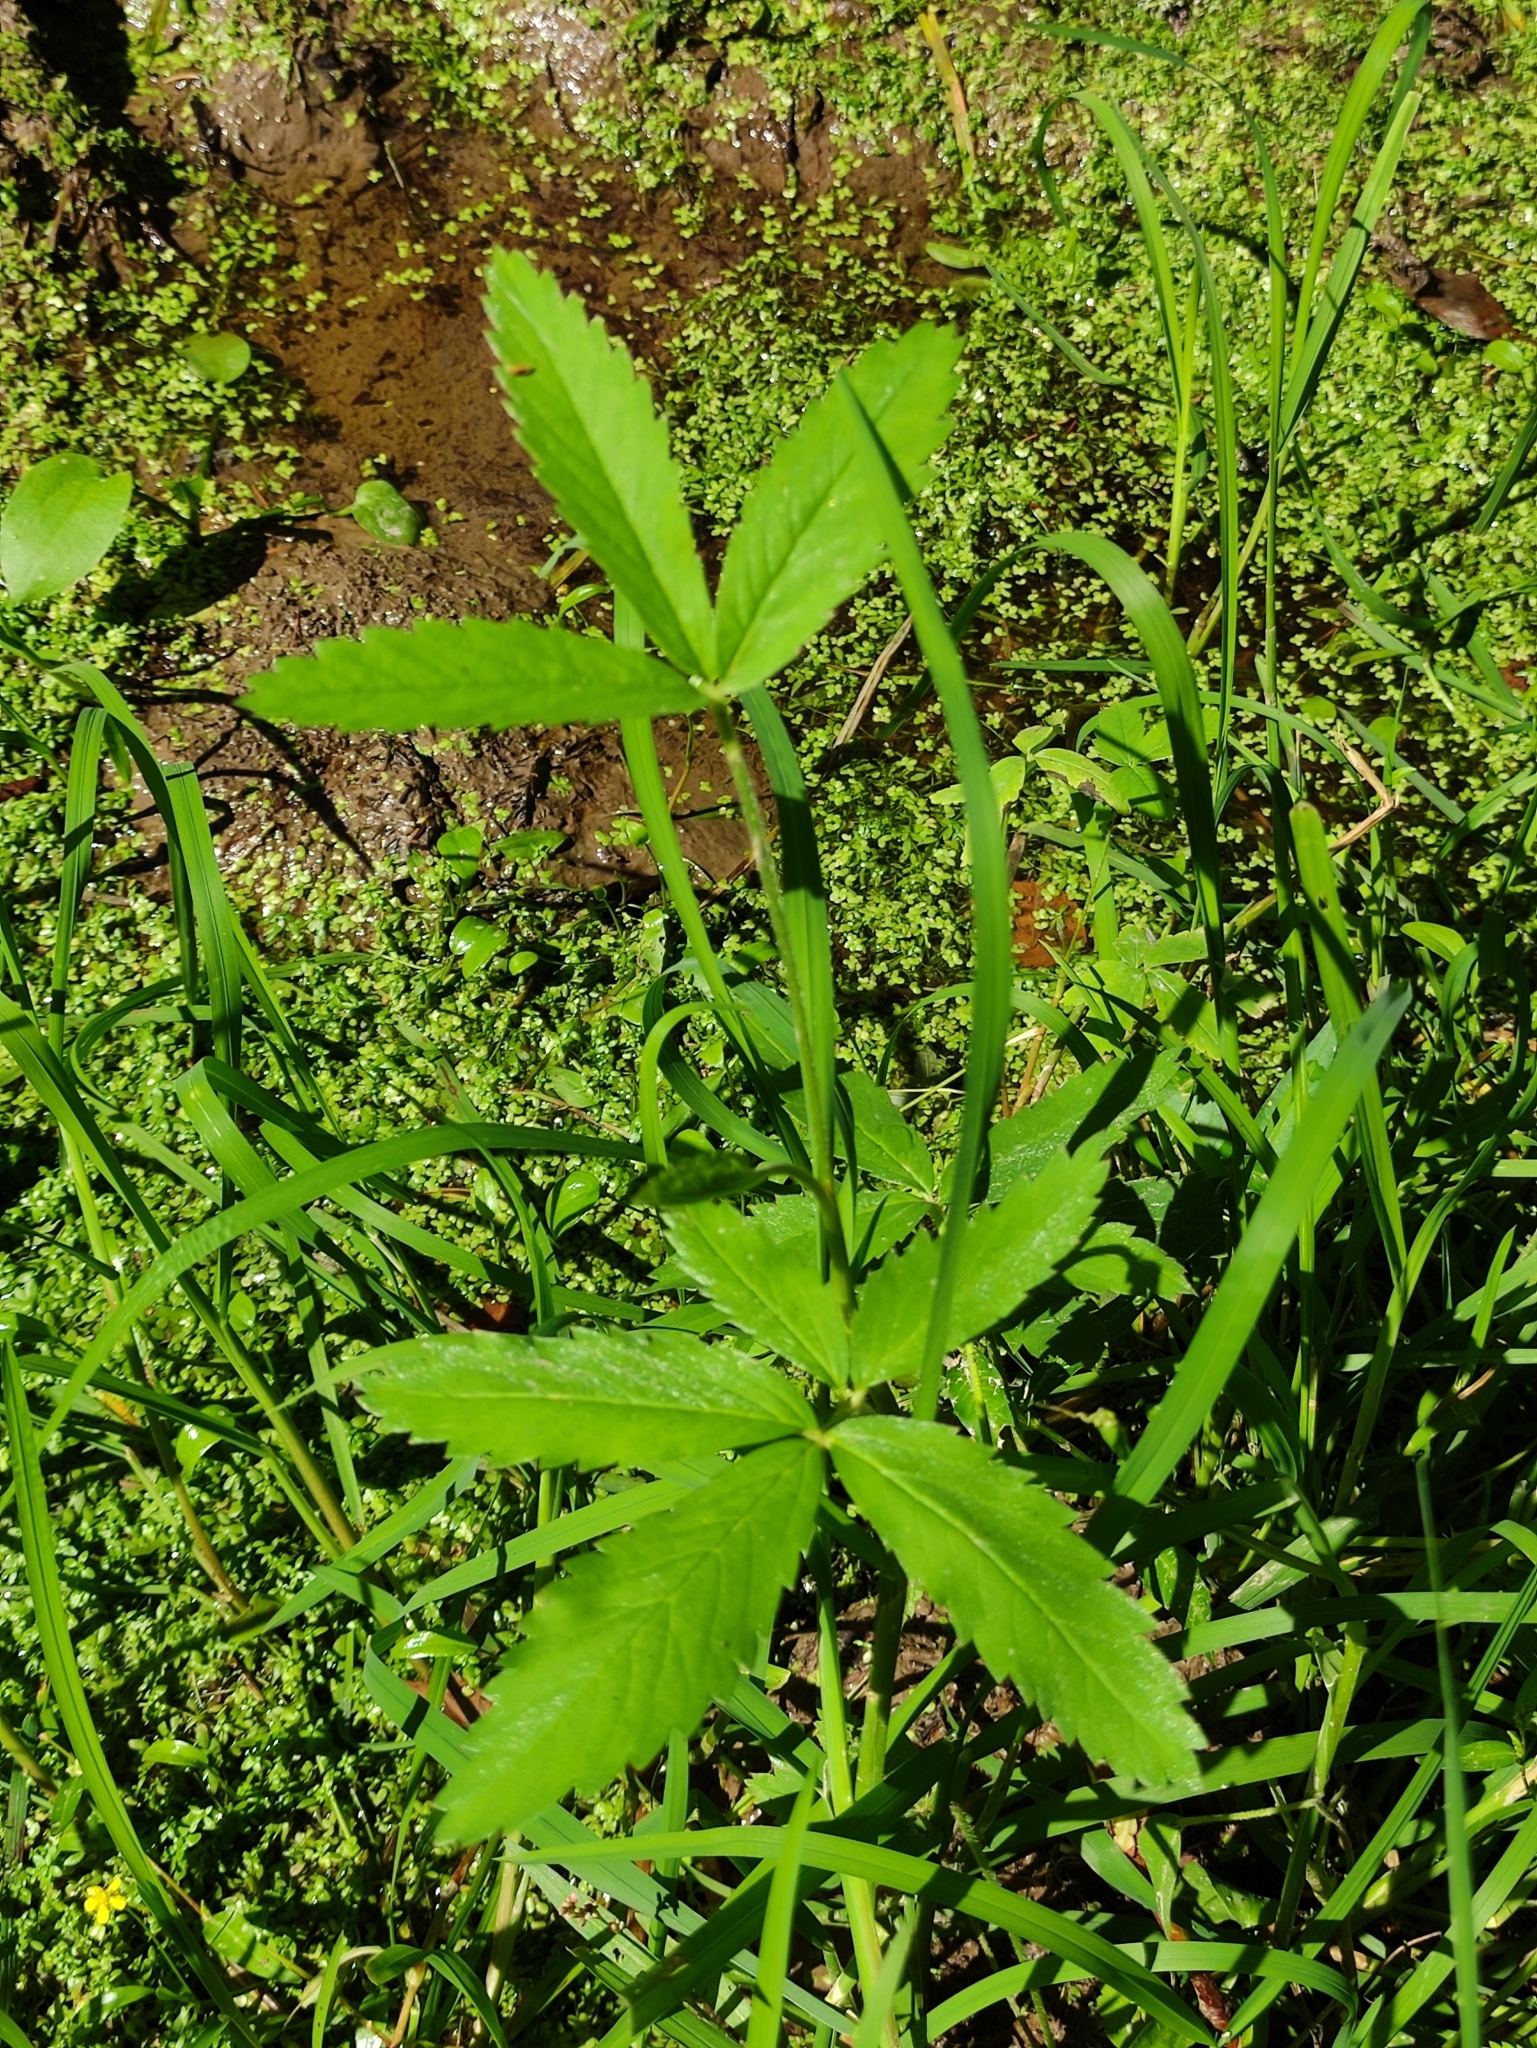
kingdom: Plantae
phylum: Tracheophyta
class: Magnoliopsida
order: Rosales
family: Rosaceae
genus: Comarum
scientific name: Comarum palustre
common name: Marsh cinquefoil
